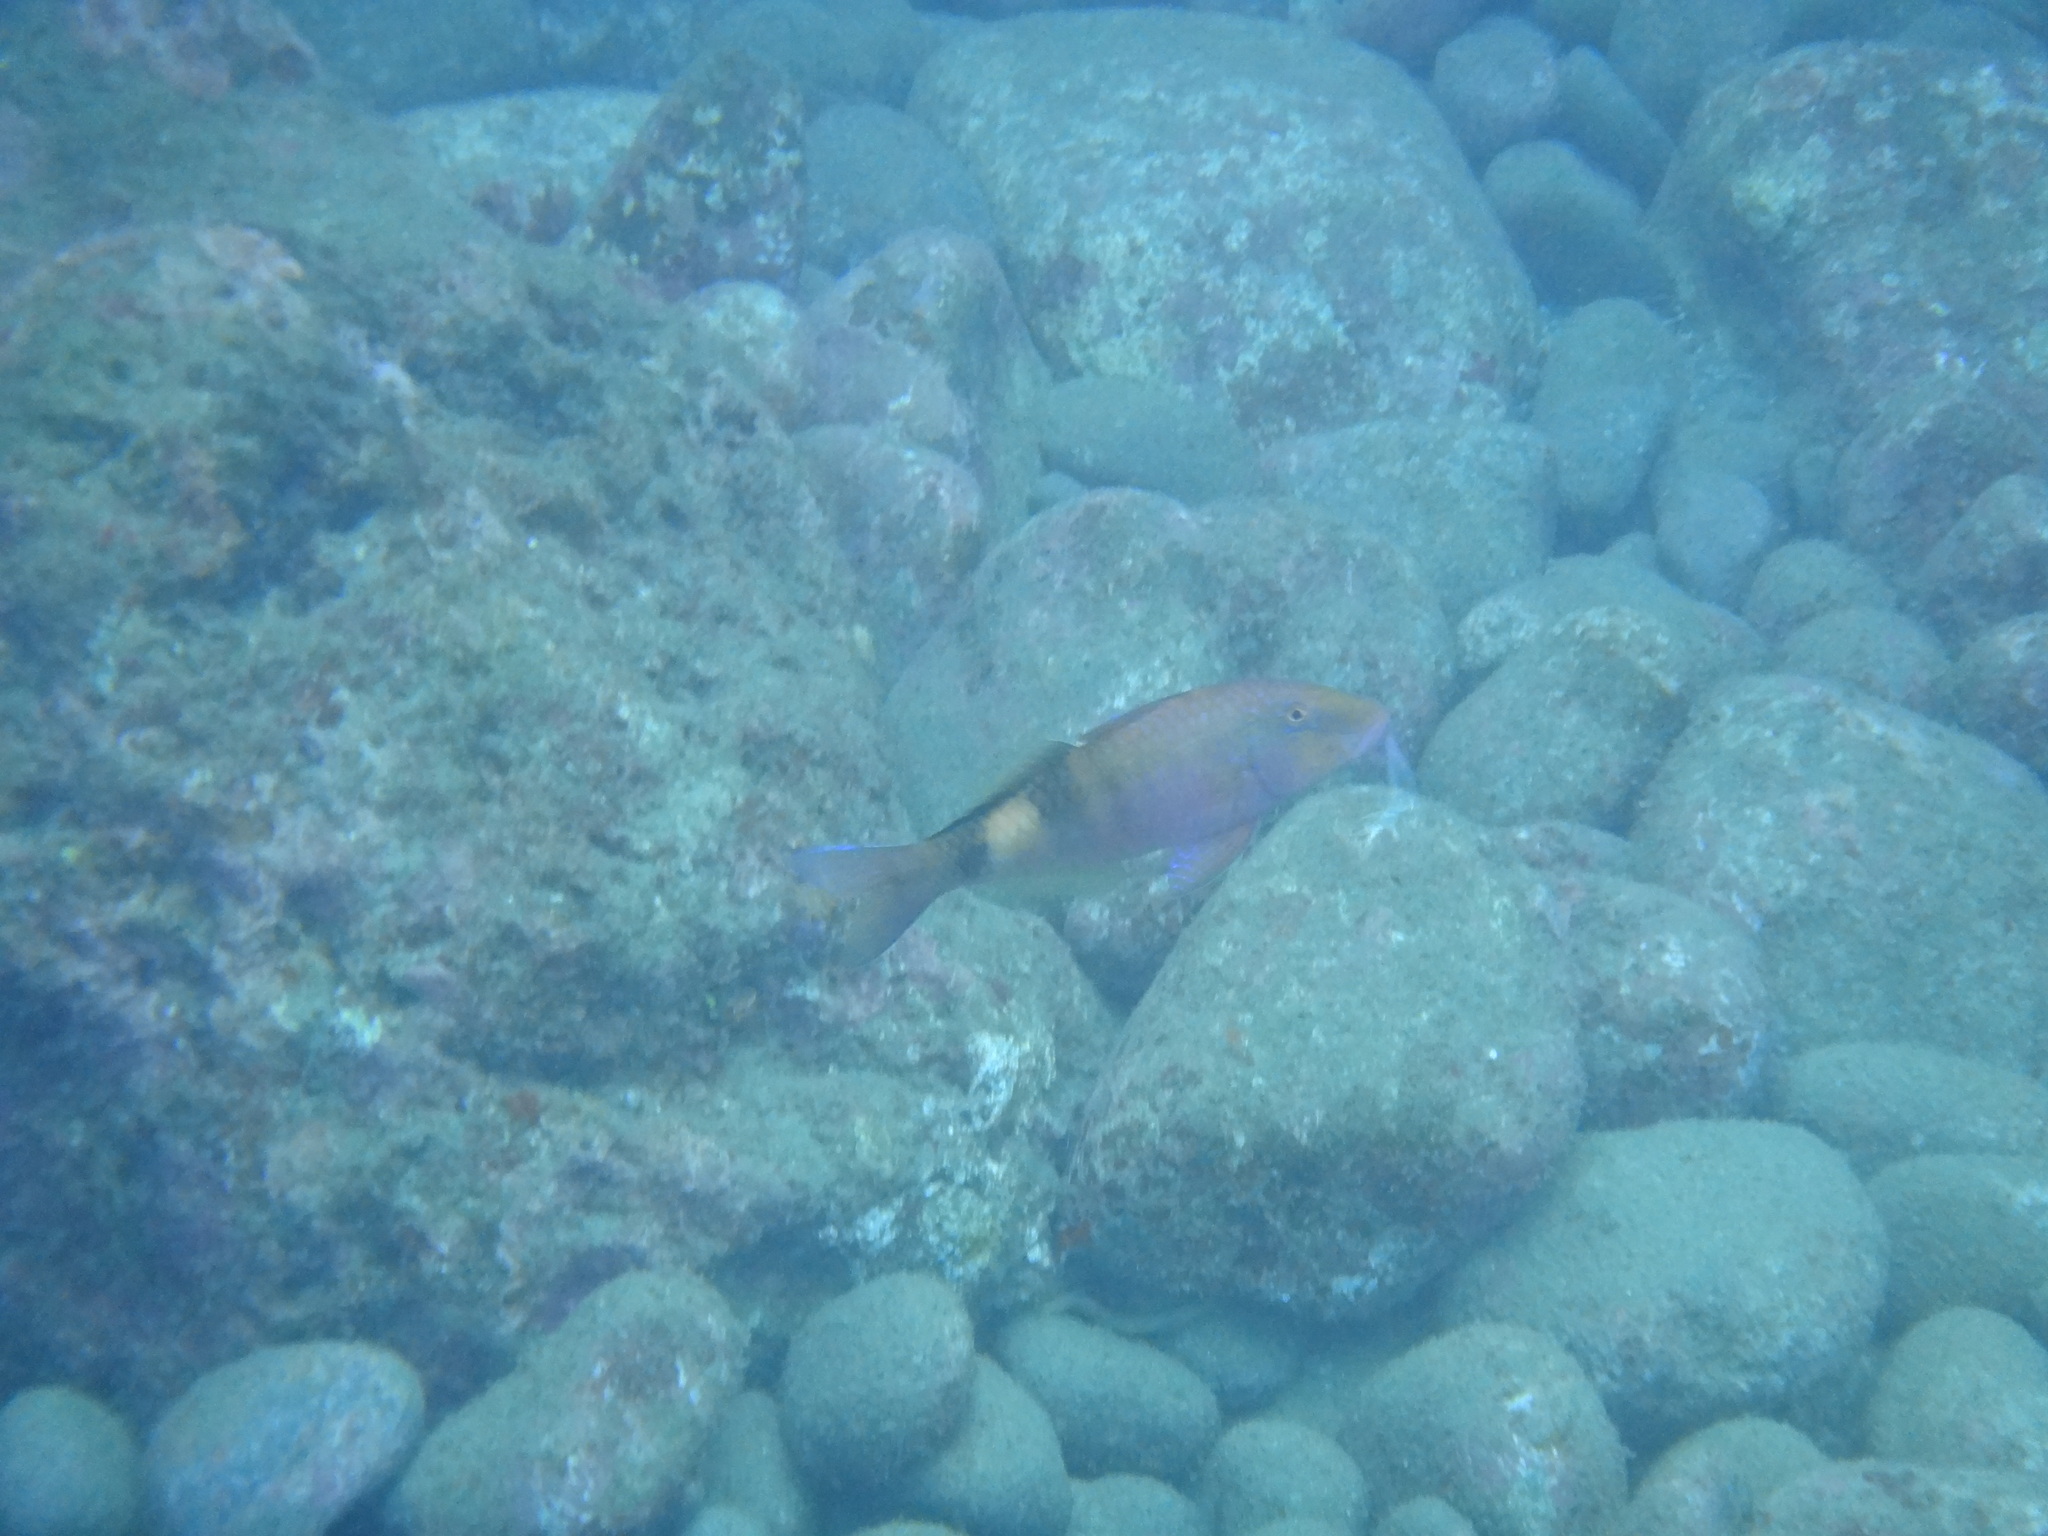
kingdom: Animalia
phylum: Chordata
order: Perciformes
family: Mullidae
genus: Parupeneus
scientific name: Parupeneus multifasciatus
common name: Manybar goatfish
